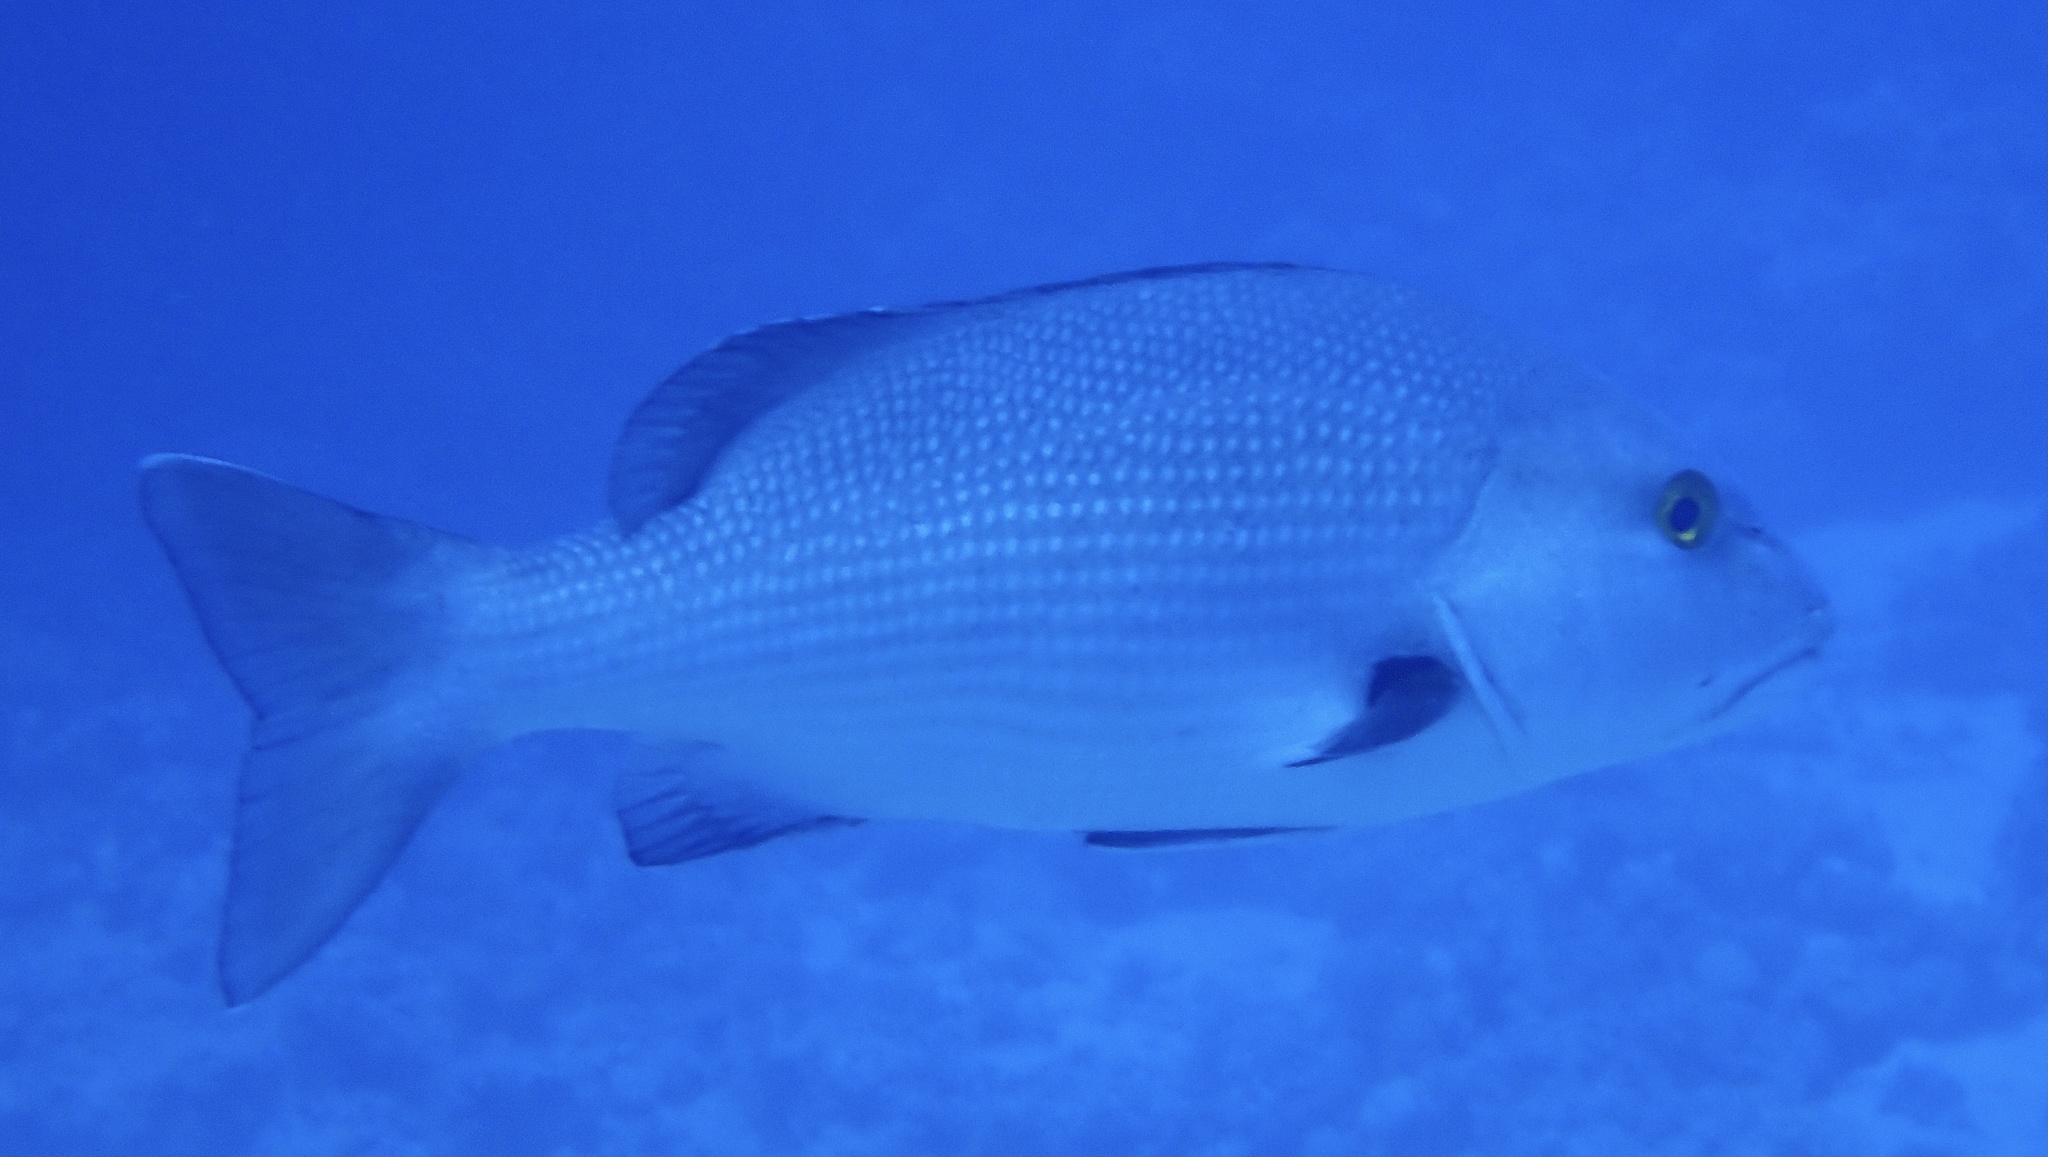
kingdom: Animalia
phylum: Chordata
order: Perciformes
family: Lutjanidae
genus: Lutjanus
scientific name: Lutjanus bohar
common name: Red bass
